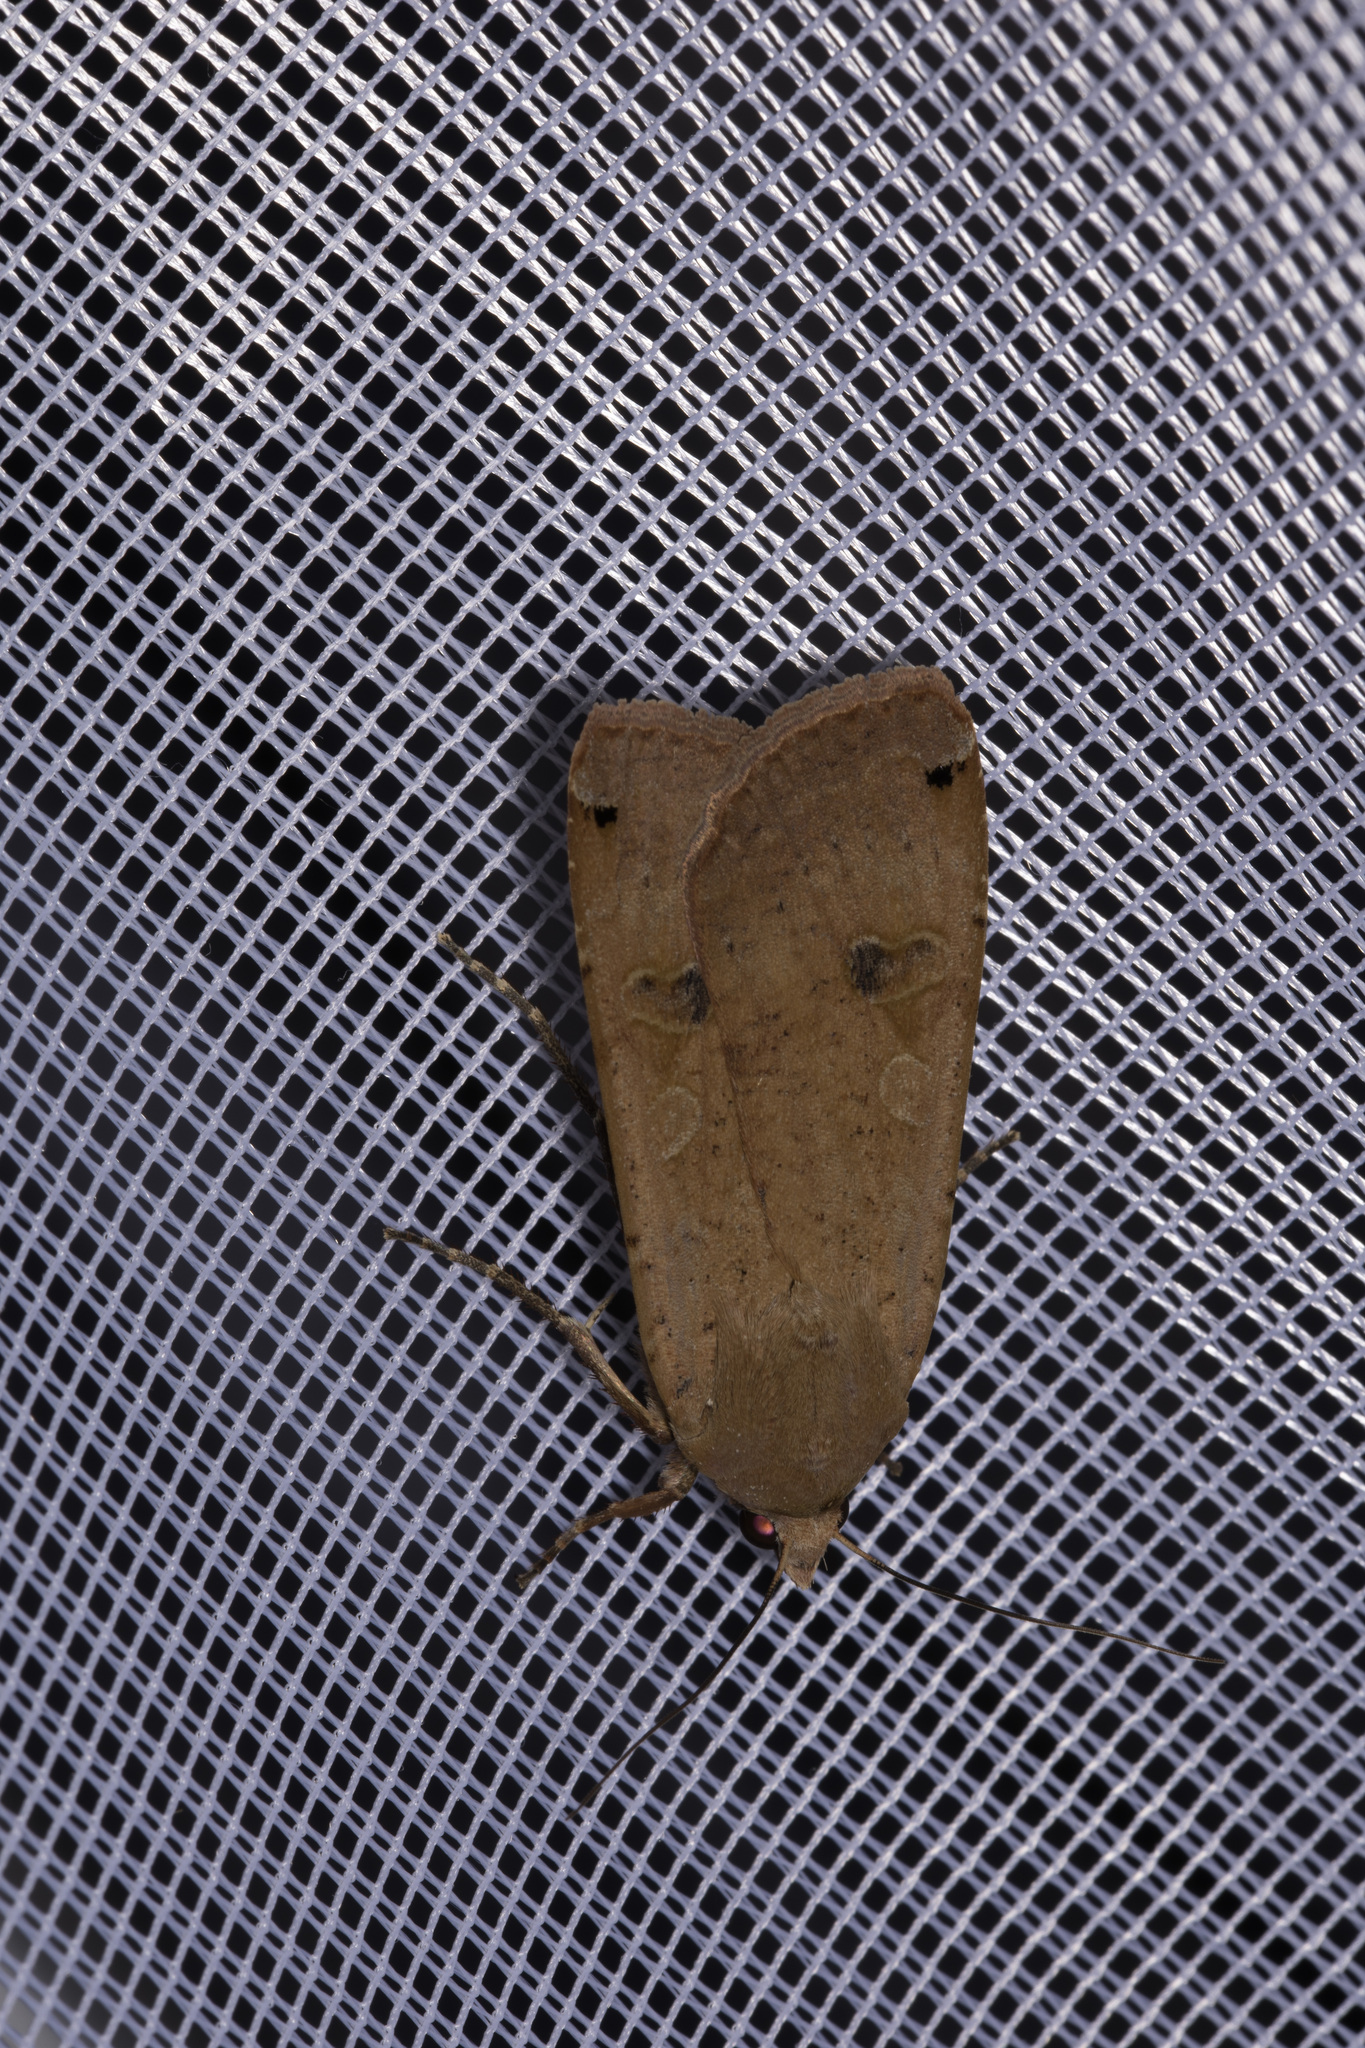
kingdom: Animalia
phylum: Arthropoda
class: Insecta
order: Lepidoptera
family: Noctuidae
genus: Noctua
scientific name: Noctua pronuba
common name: Large yellow underwing
